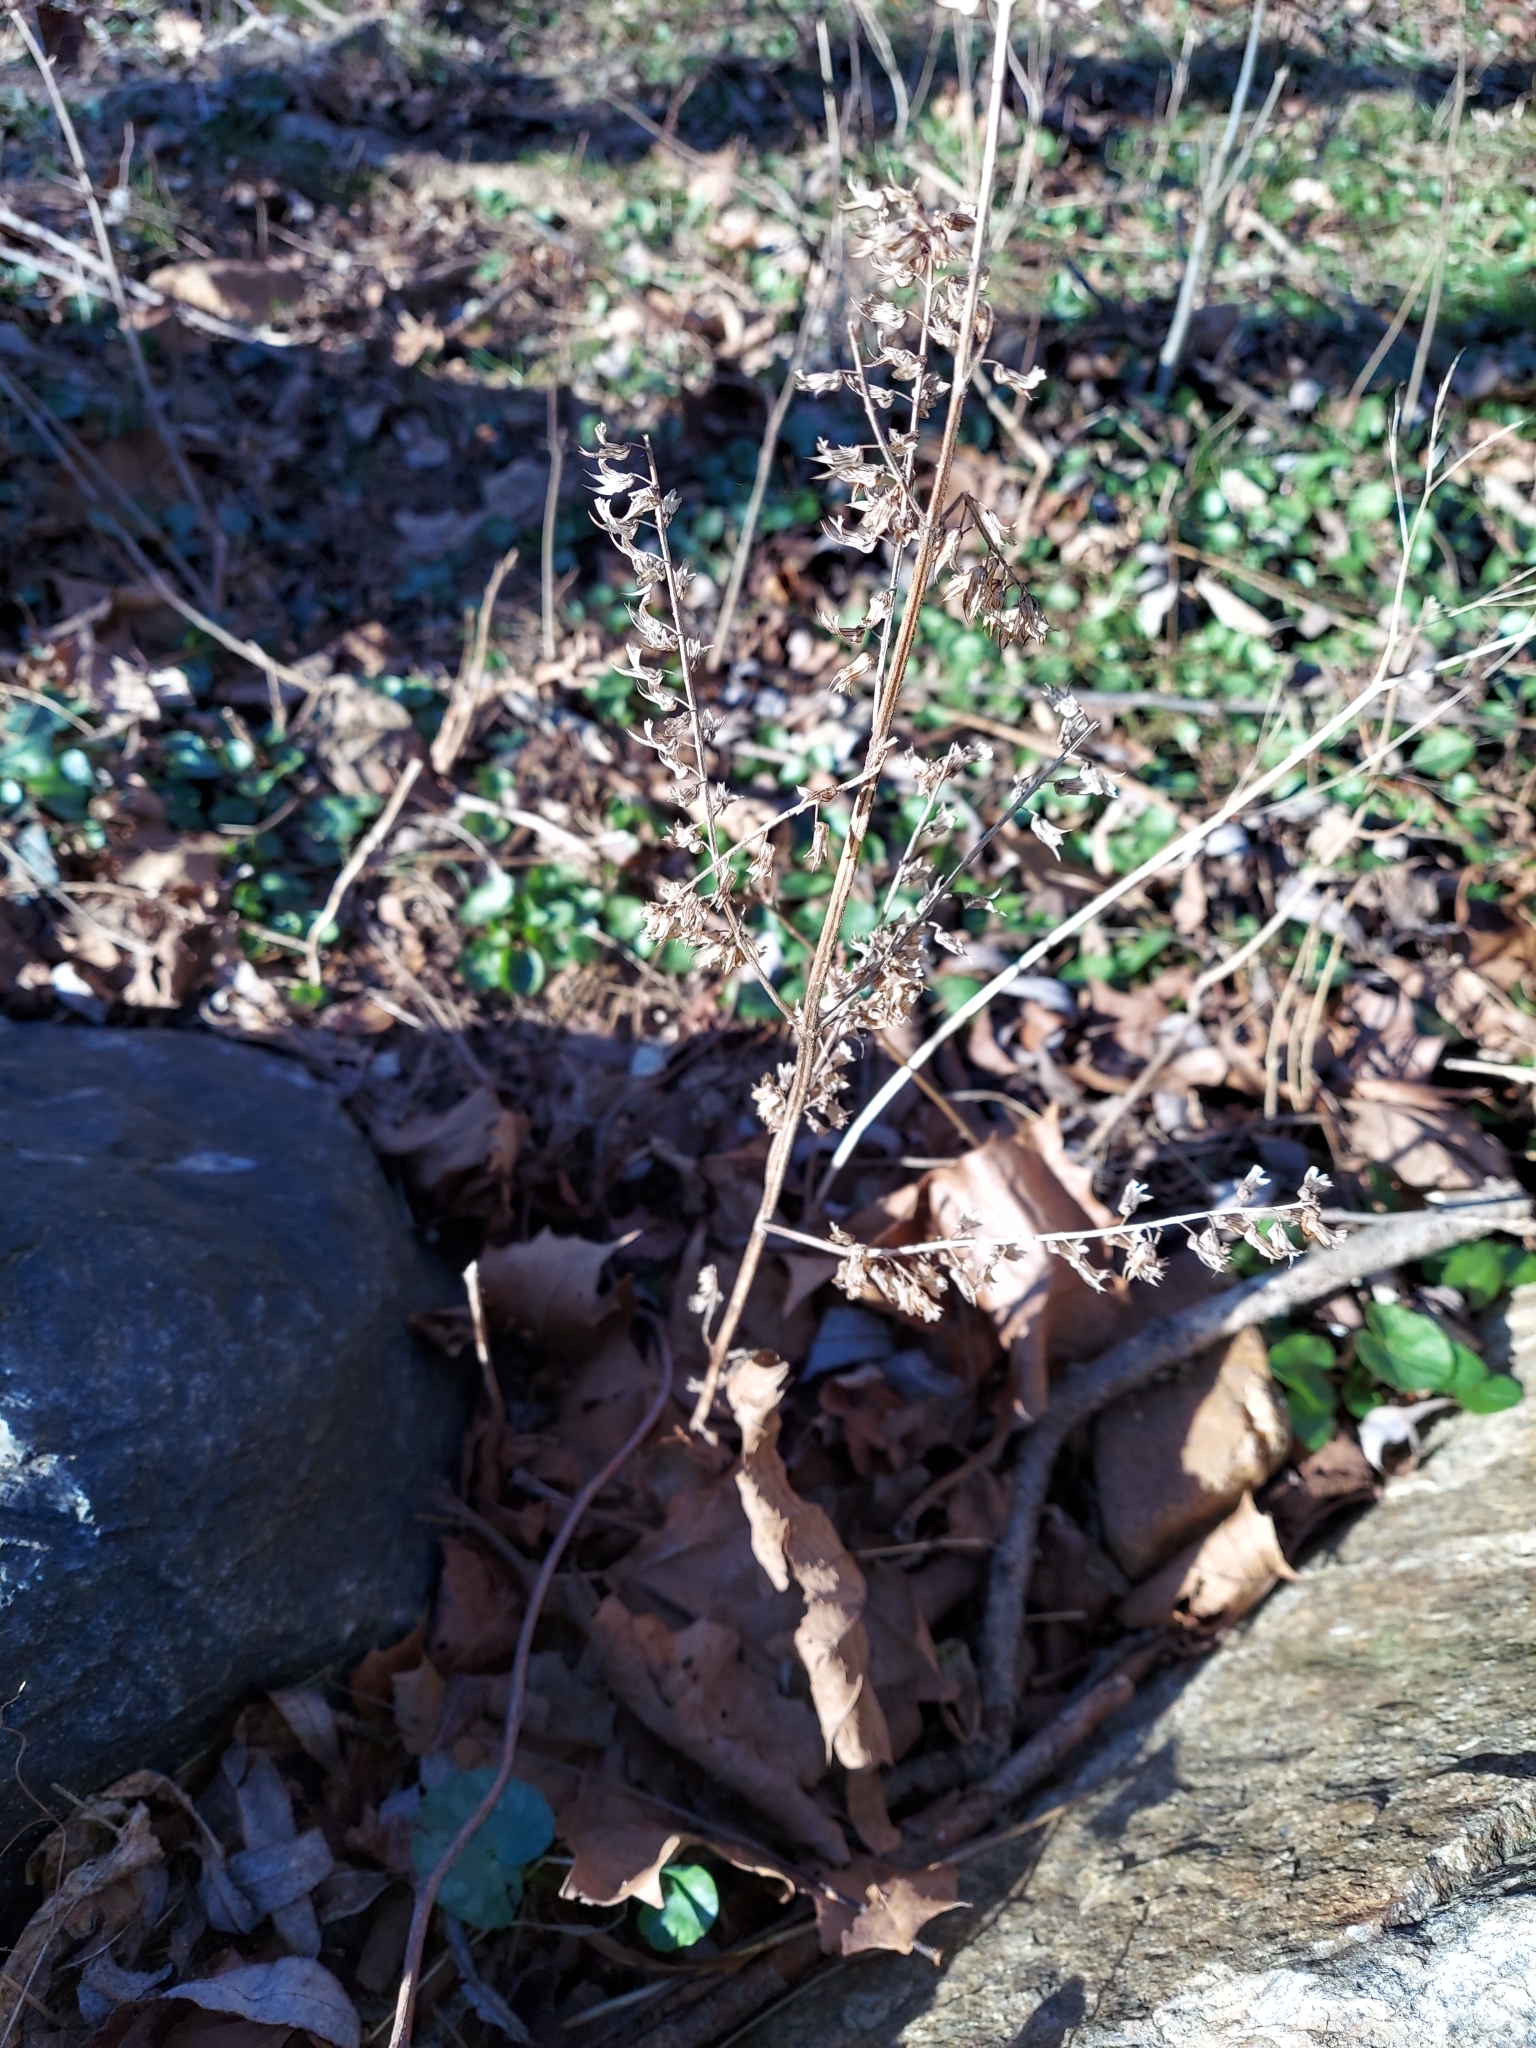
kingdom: Plantae
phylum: Tracheophyta
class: Magnoliopsida
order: Lamiales
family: Lamiaceae
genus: Perilla
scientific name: Perilla frutescens
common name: Perilla
